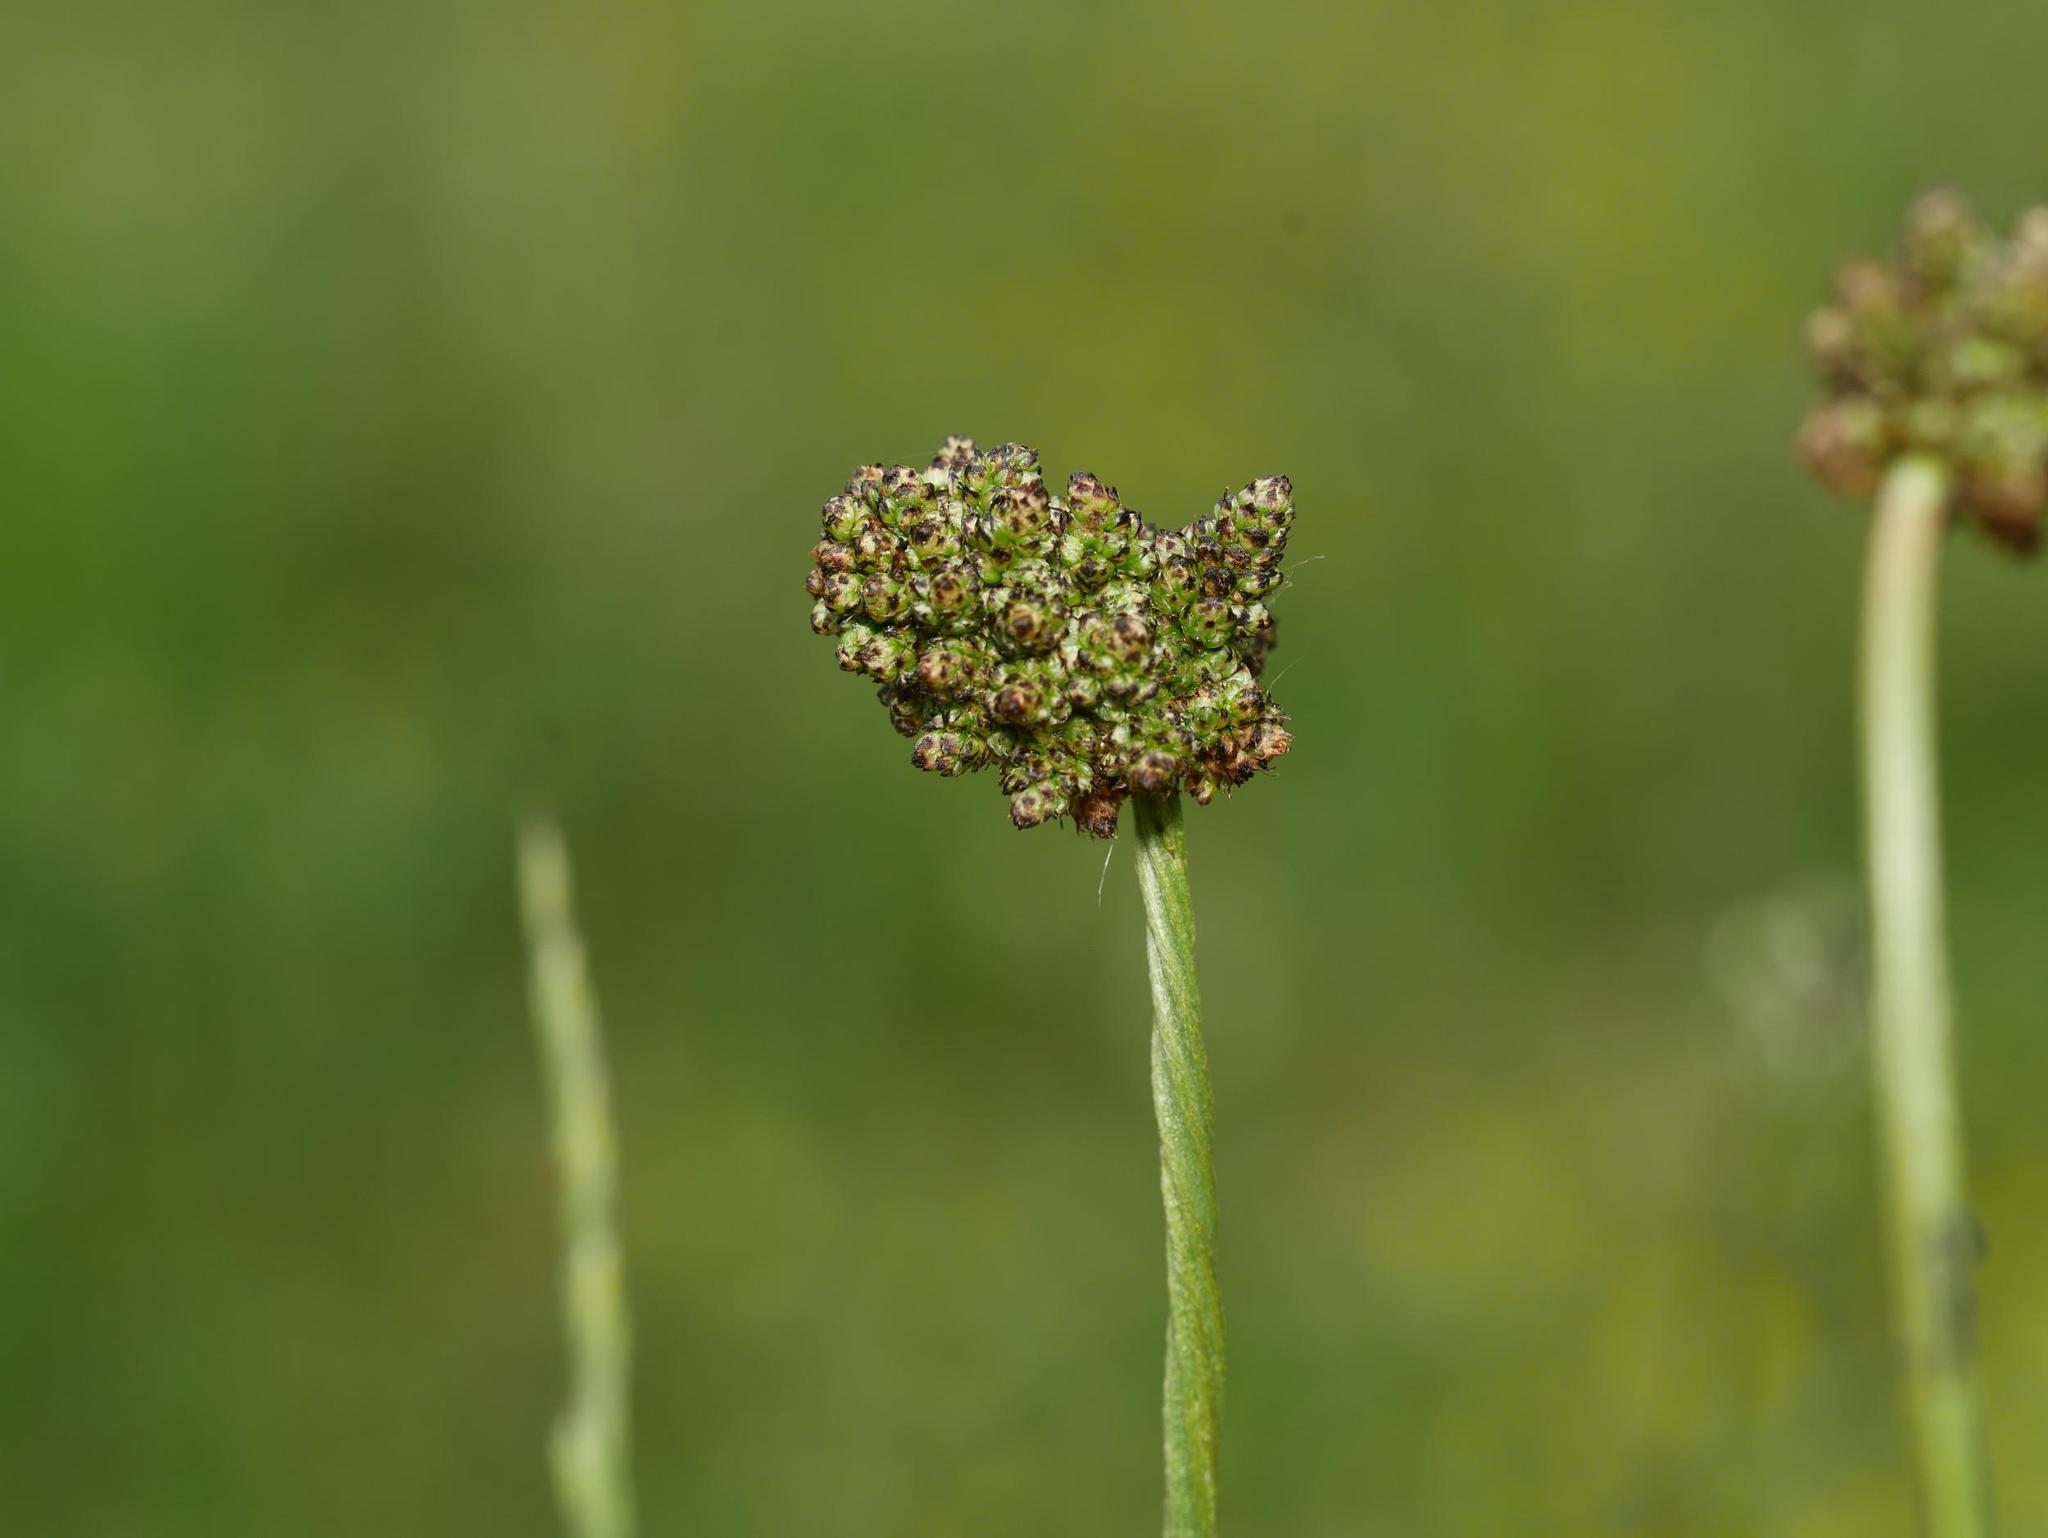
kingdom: Plantae
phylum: Tracheophyta
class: Magnoliopsida
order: Rosales
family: Rosaceae
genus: Poterium
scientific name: Poterium sanguisorba
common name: Salad burnet
